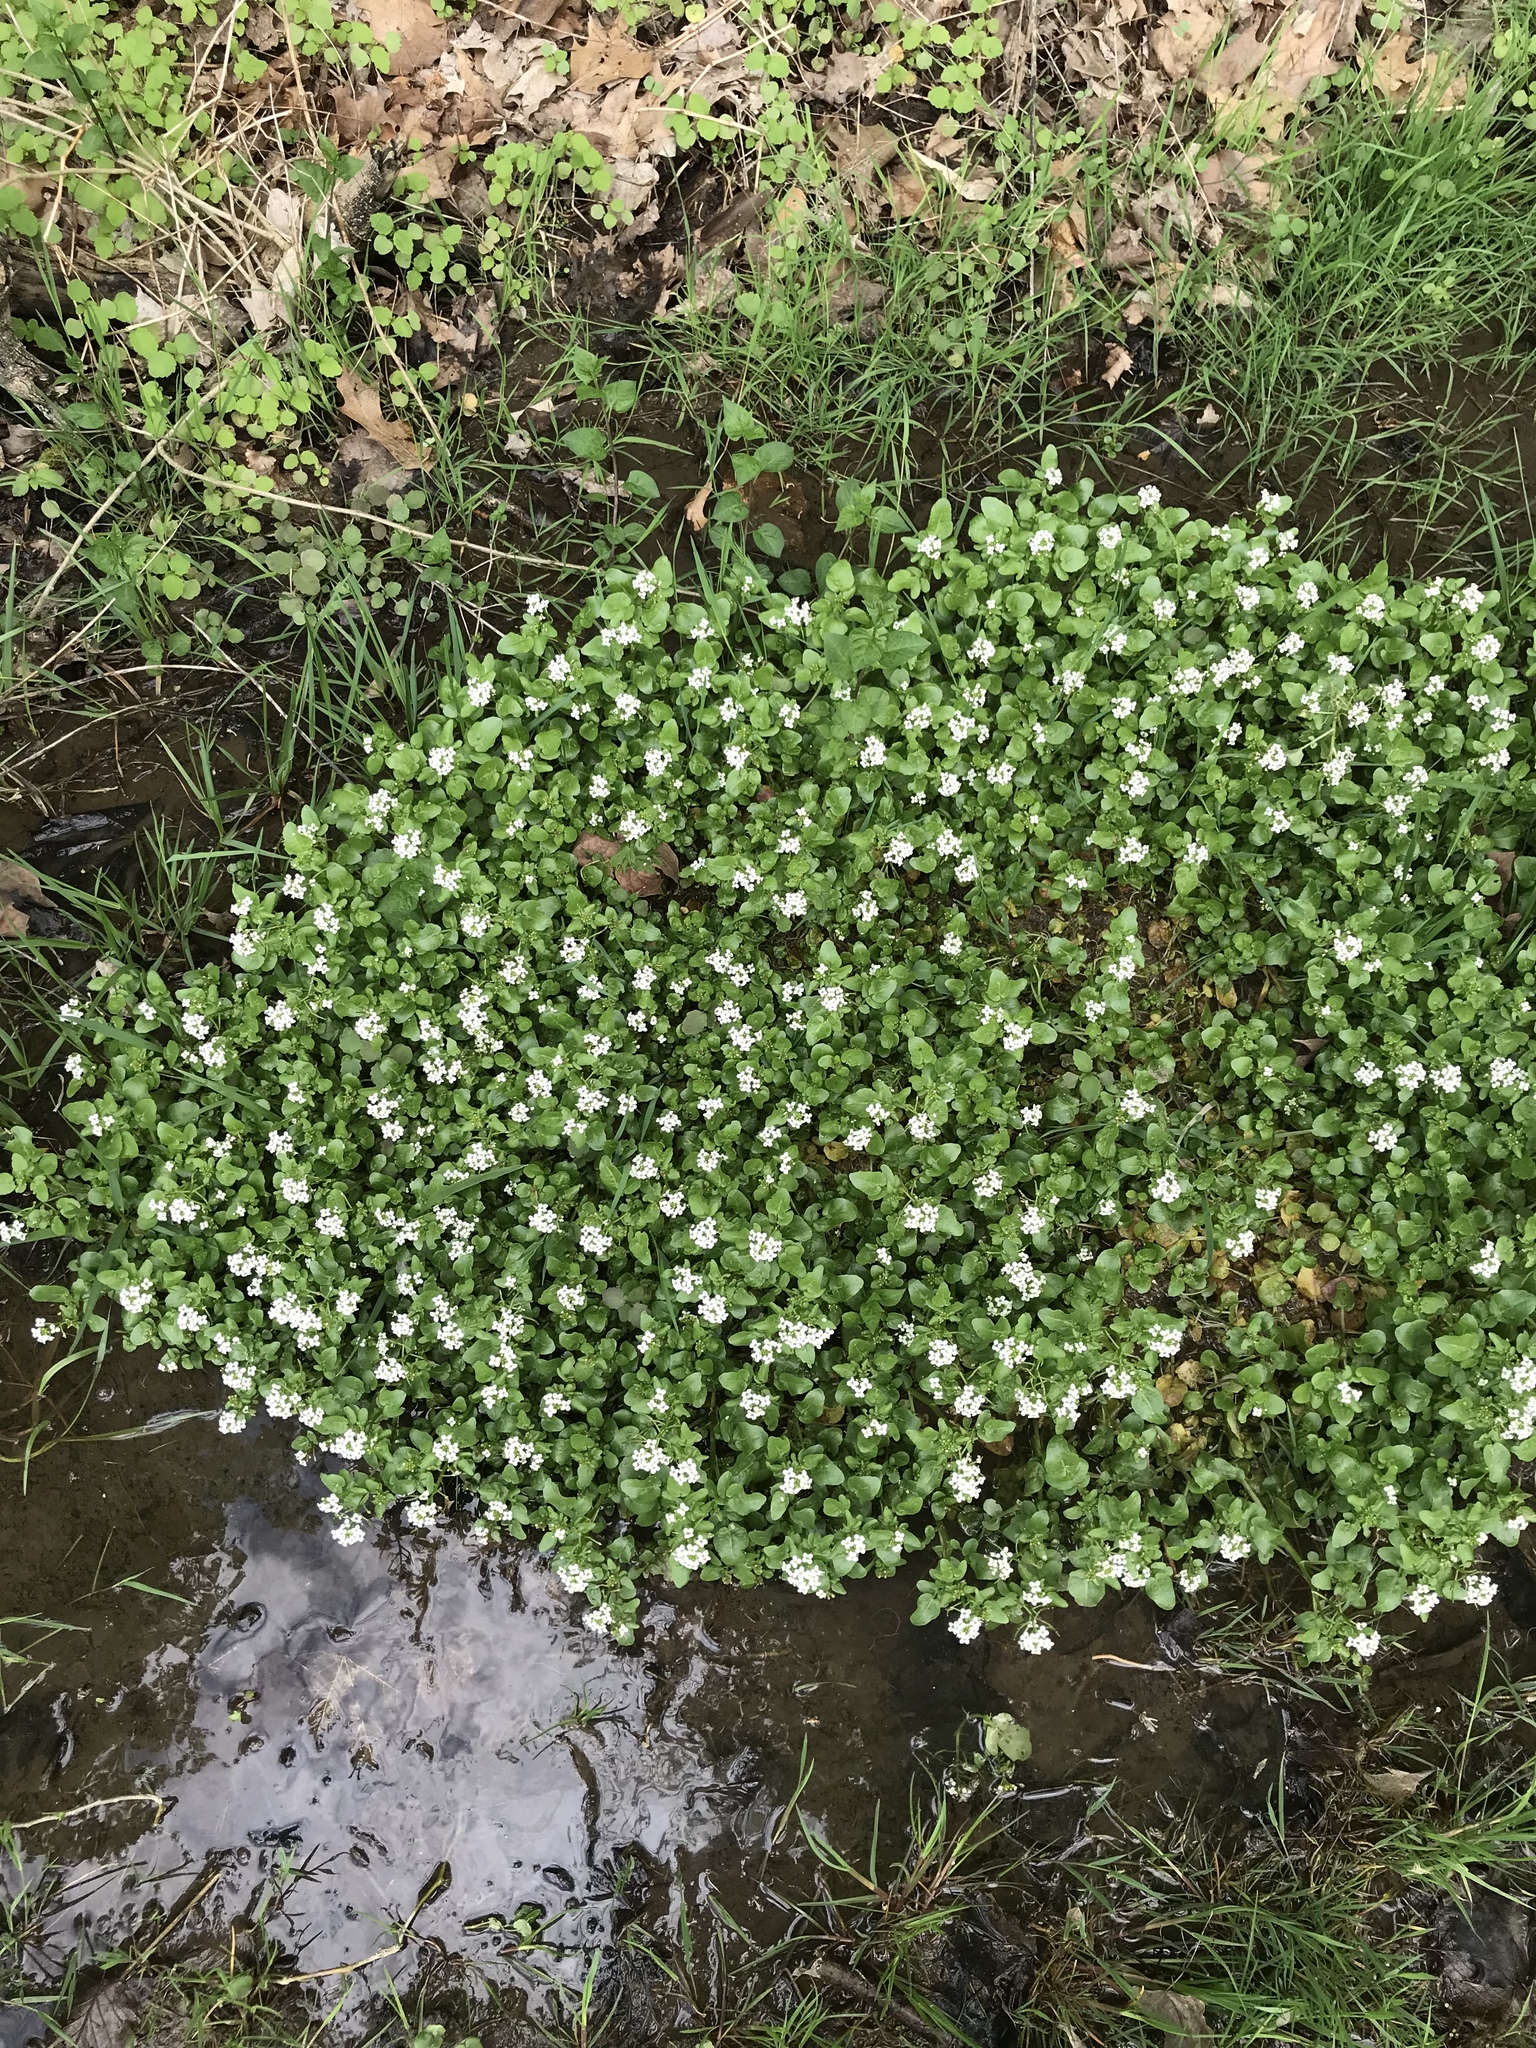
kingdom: Plantae
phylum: Tracheophyta
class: Magnoliopsida
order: Brassicales
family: Brassicaceae
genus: Nasturtium
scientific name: Nasturtium officinale
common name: Watercress
